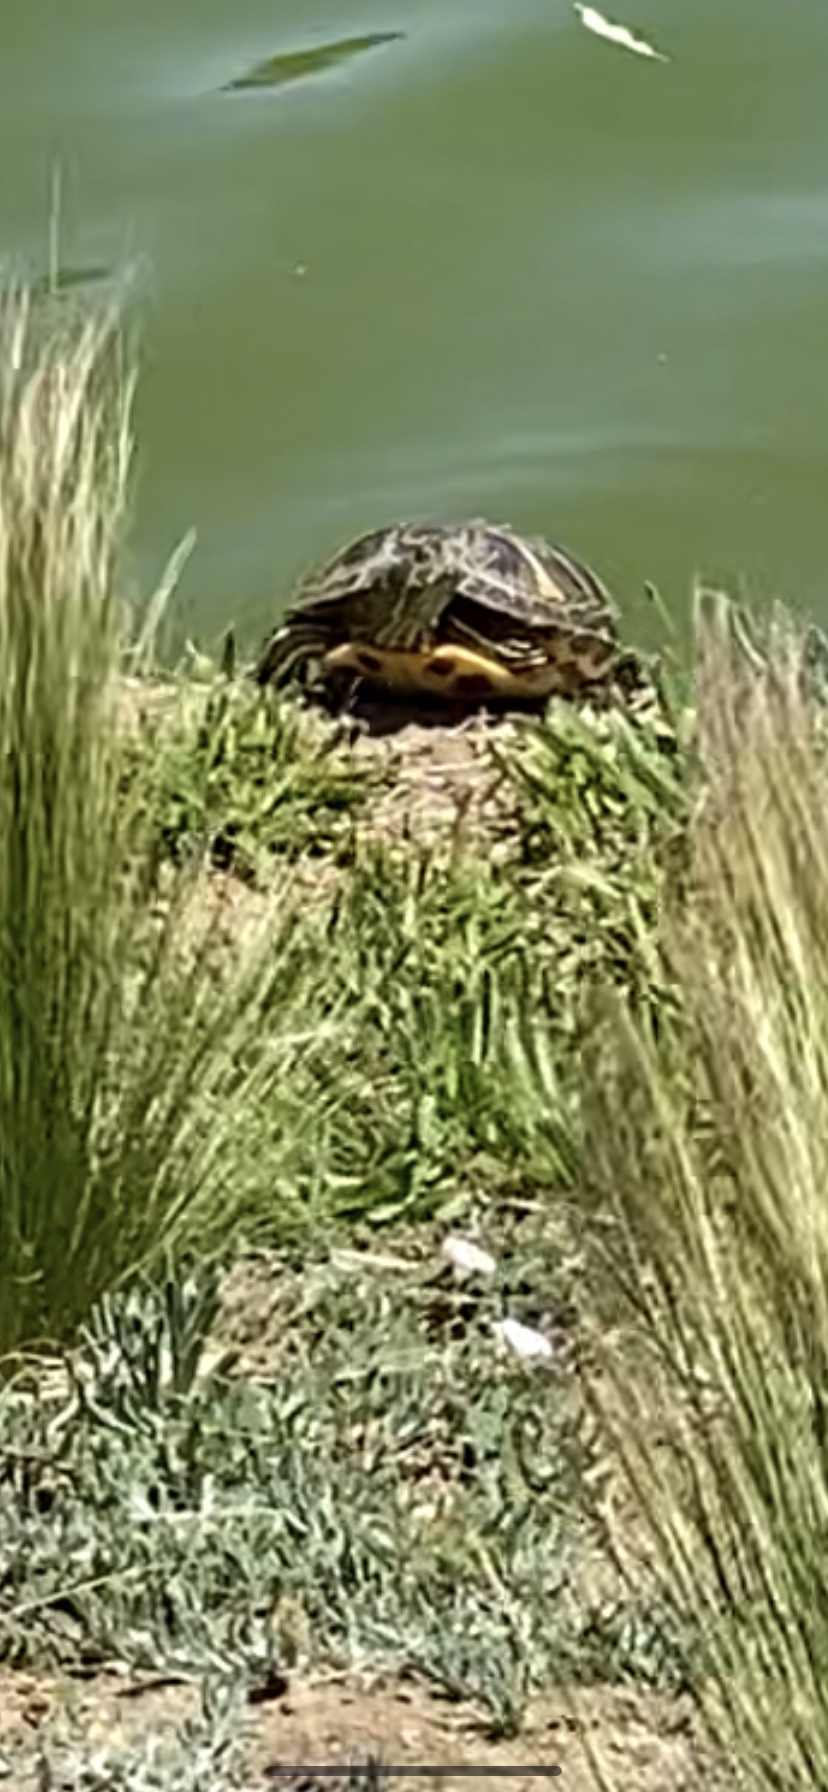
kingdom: Animalia
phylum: Chordata
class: Testudines
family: Emydidae
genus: Trachemys
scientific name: Trachemys scripta
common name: Slider
